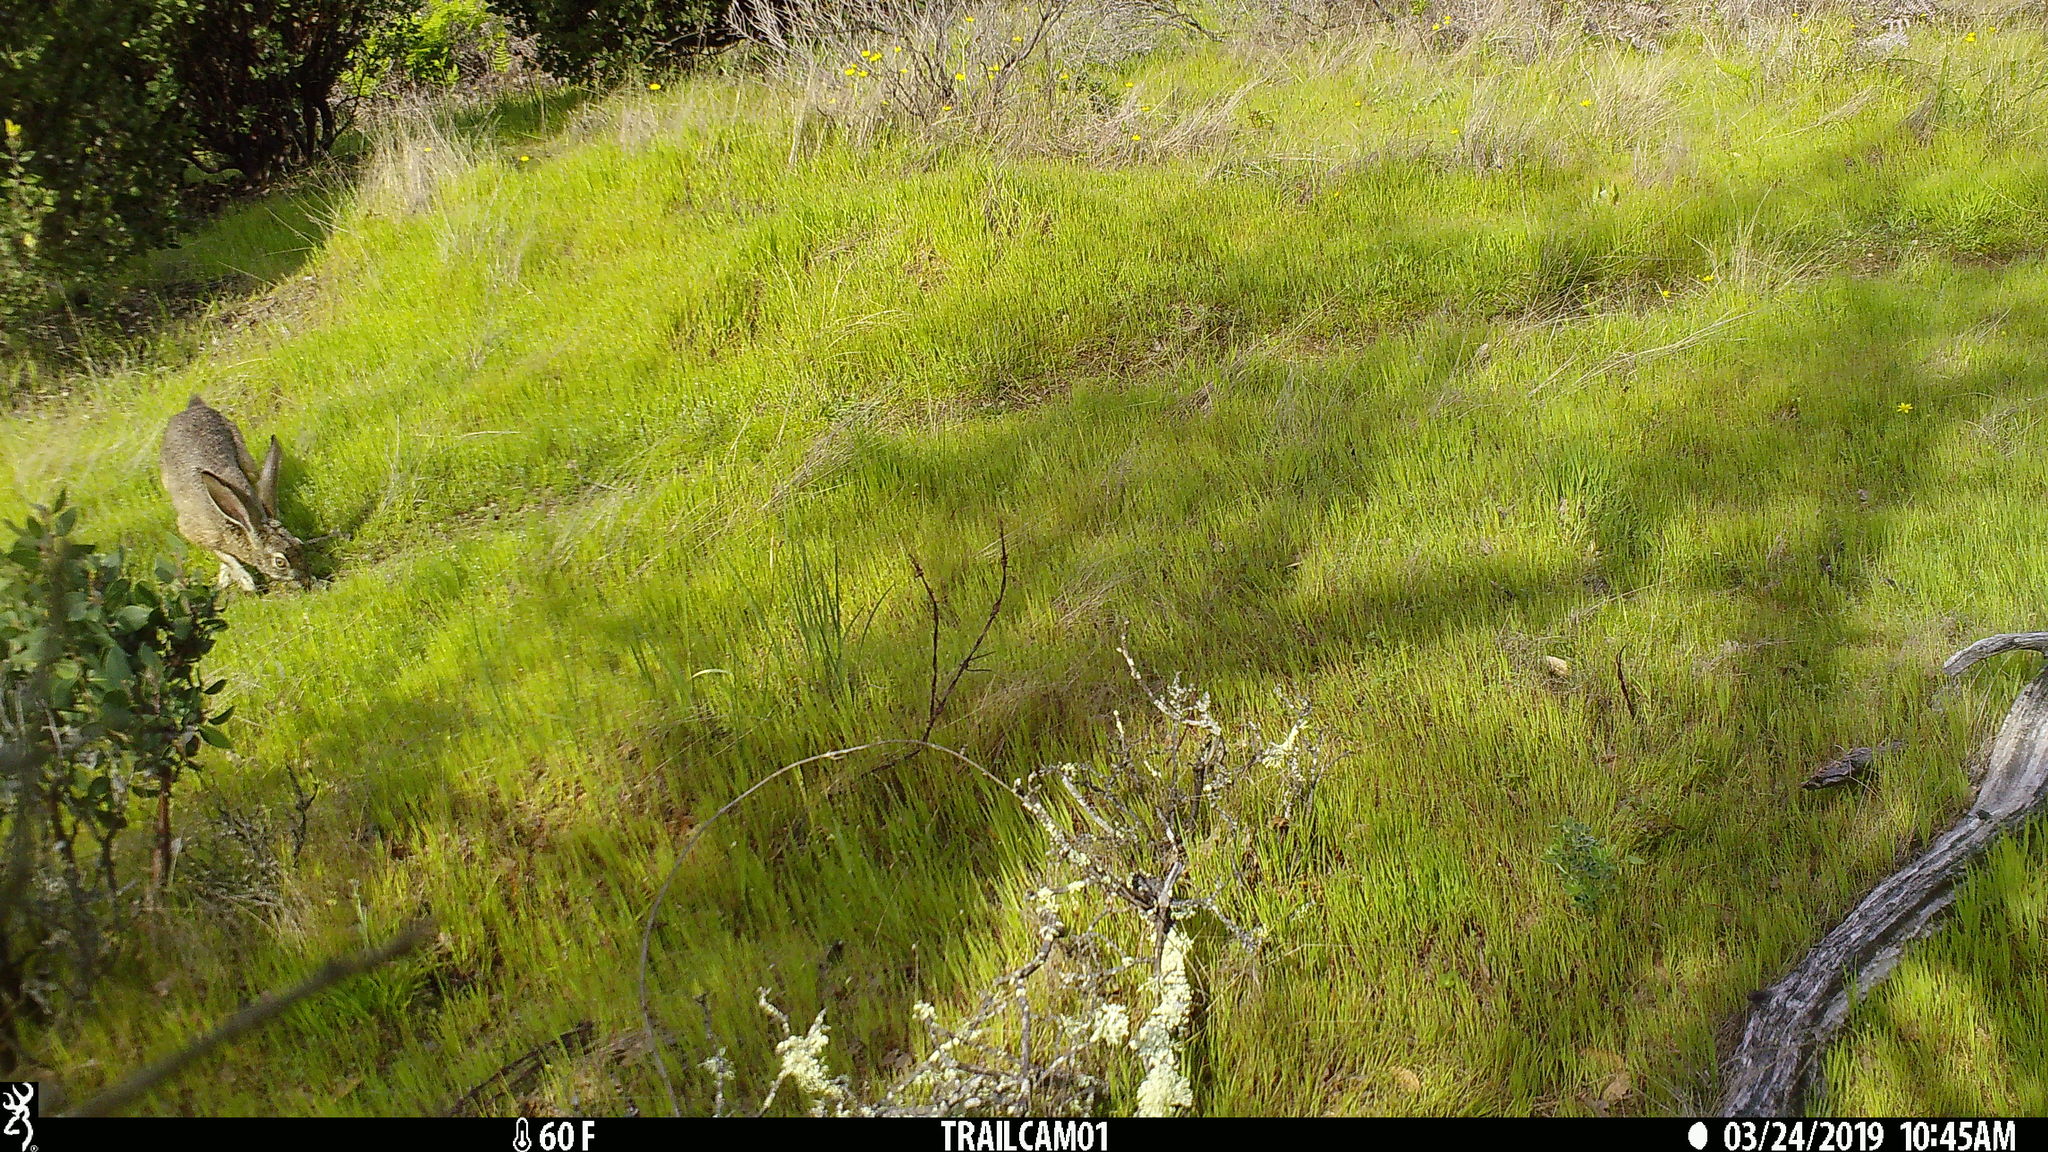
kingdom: Animalia
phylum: Chordata
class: Mammalia
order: Lagomorpha
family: Leporidae
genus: Lepus
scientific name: Lepus californicus
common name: Black-tailed jackrabbit
